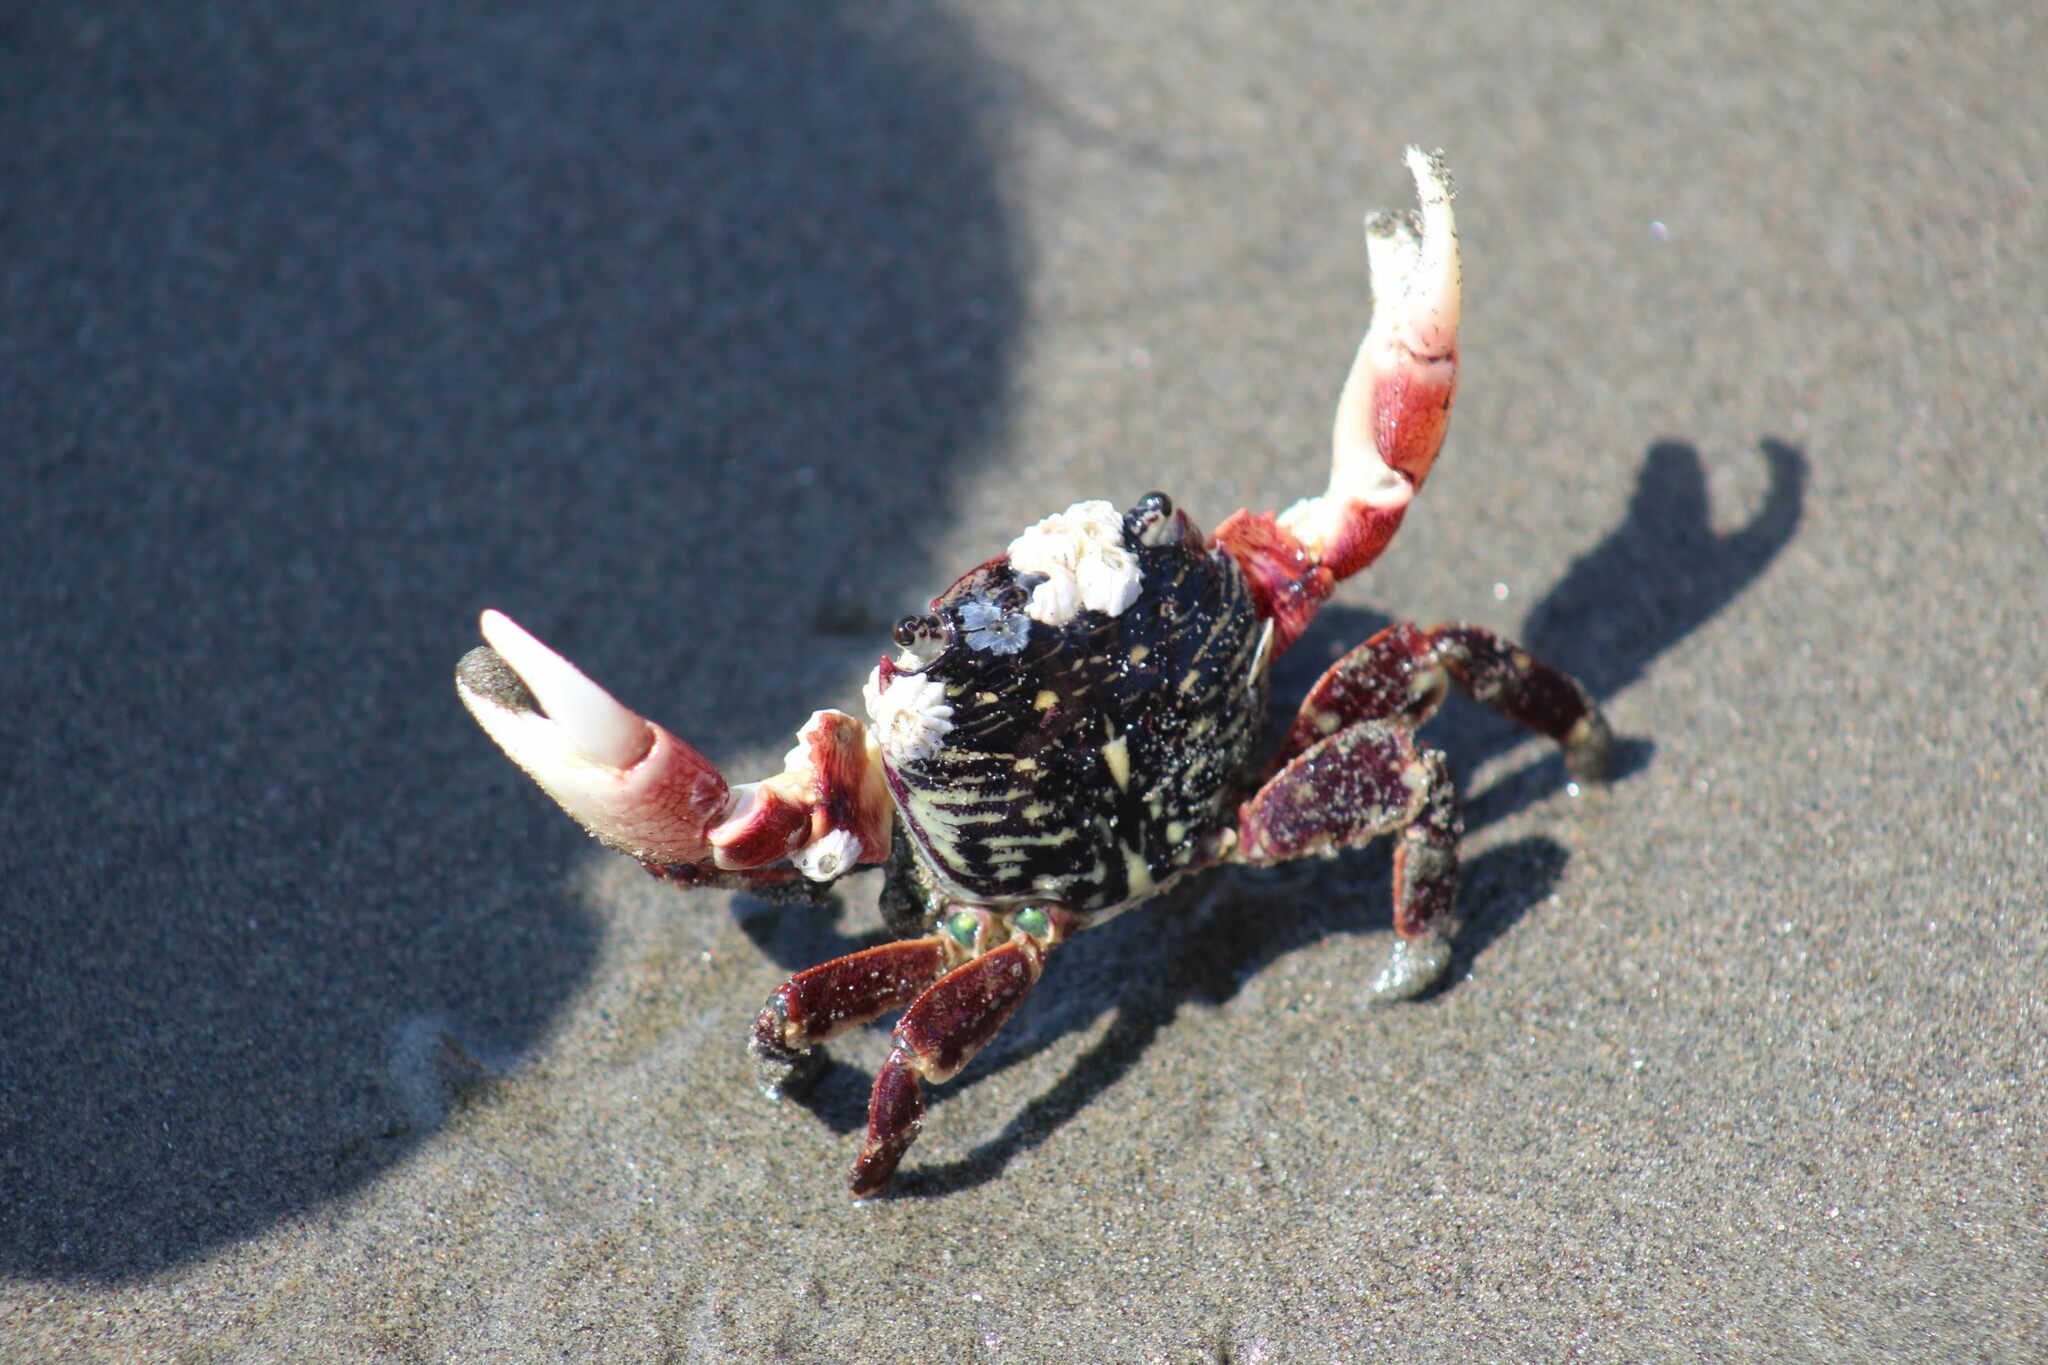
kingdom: Animalia
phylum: Arthropoda
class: Malacostraca
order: Decapoda
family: Grapsidae
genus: Pachygrapsus
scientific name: Pachygrapsus crassipes
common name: Striped shore crab
